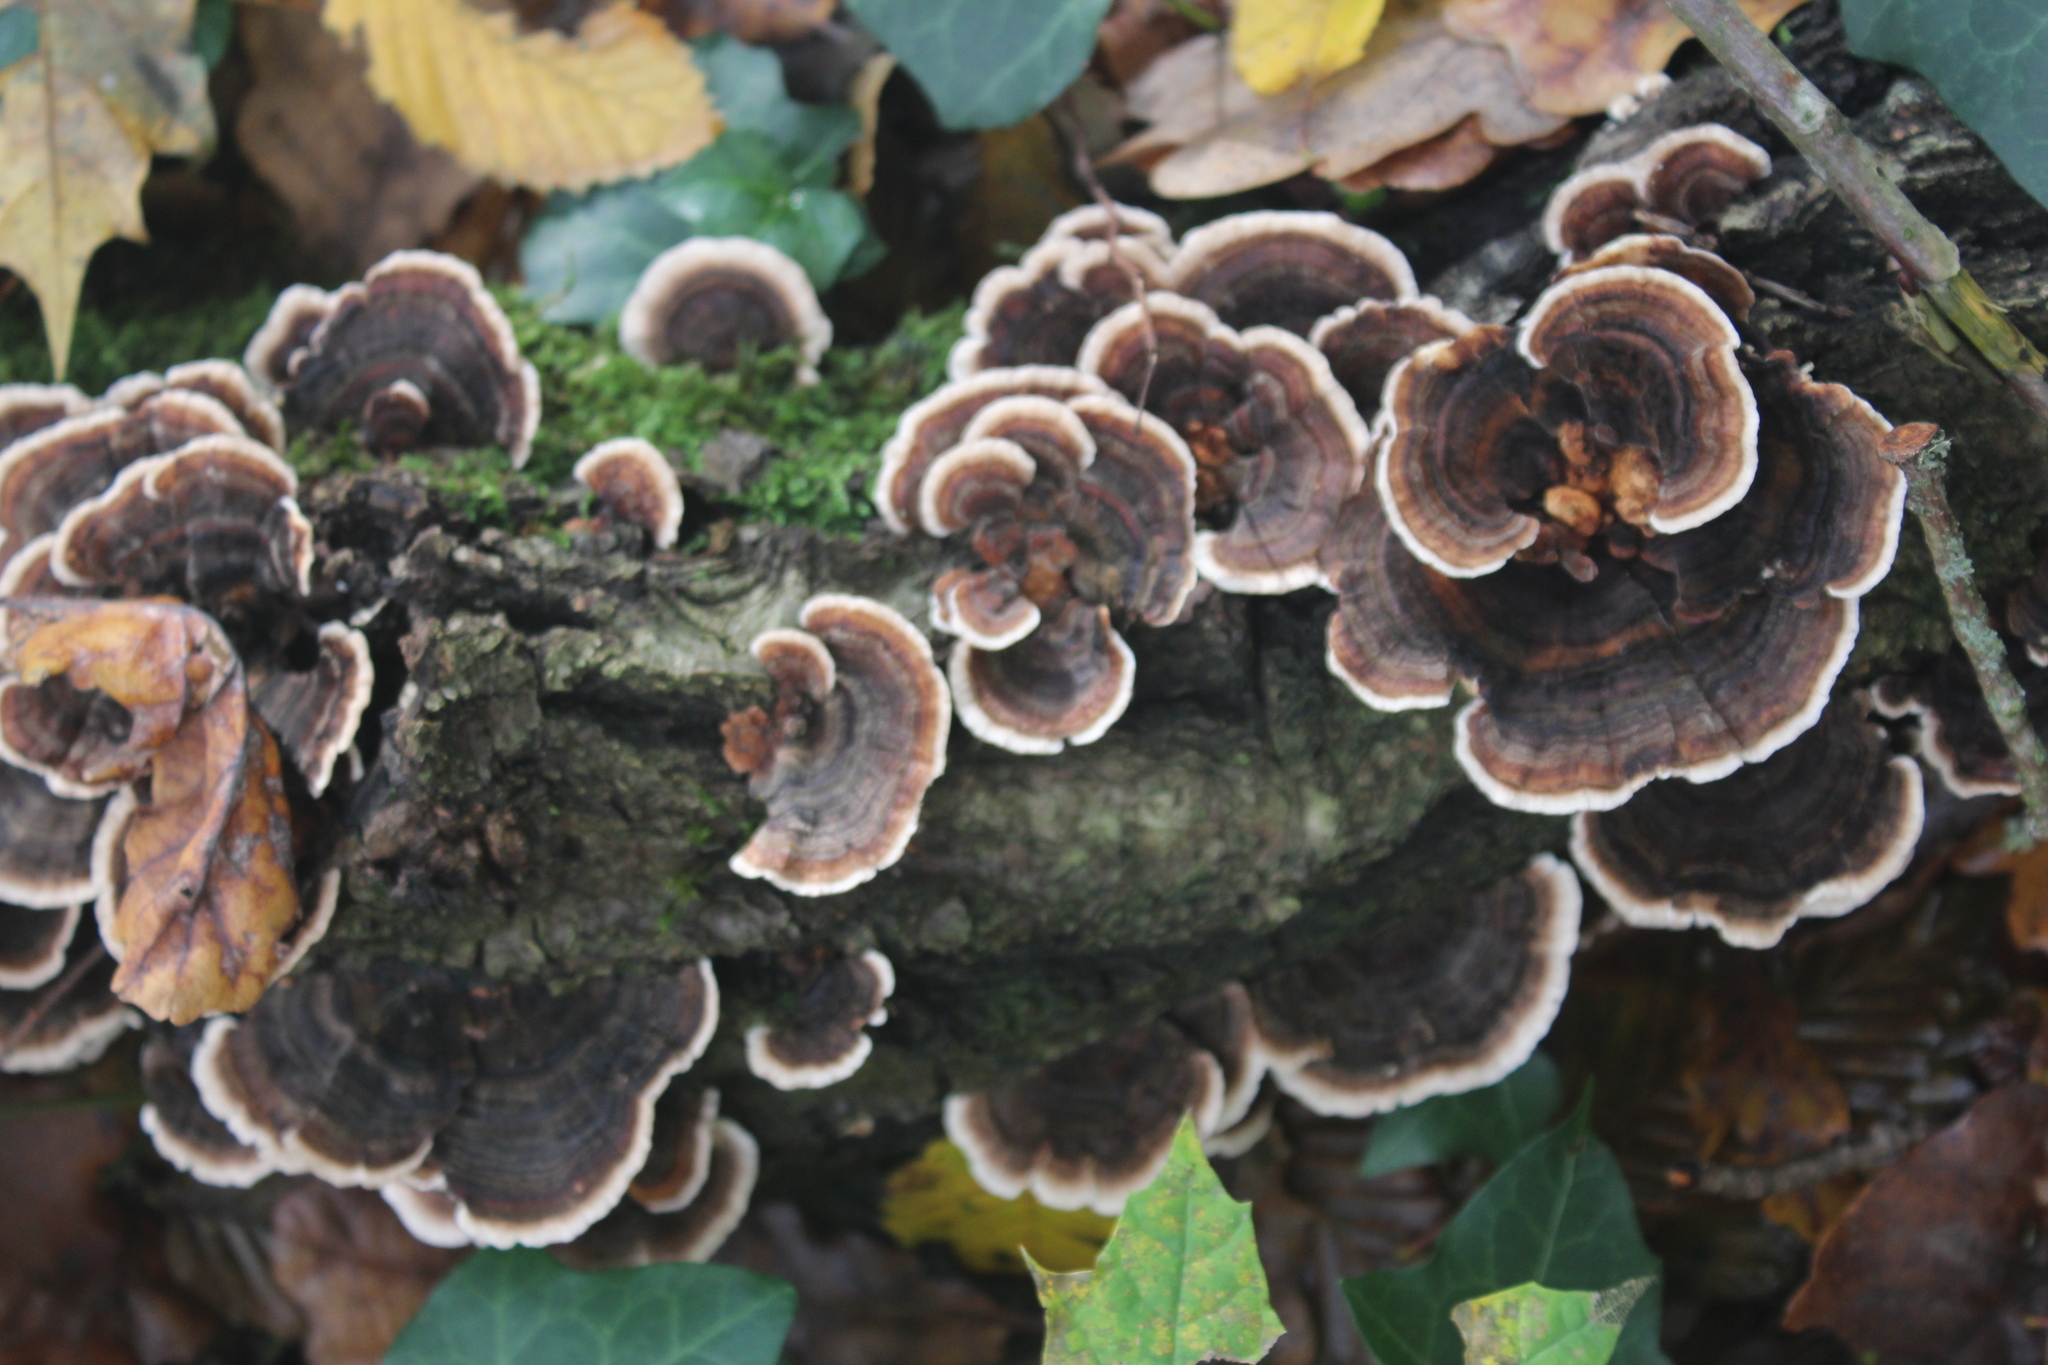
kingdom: Fungi
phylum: Basidiomycota
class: Agaricomycetes
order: Polyporales
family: Polyporaceae
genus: Trametes
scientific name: Trametes versicolor
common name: Turkeytail
